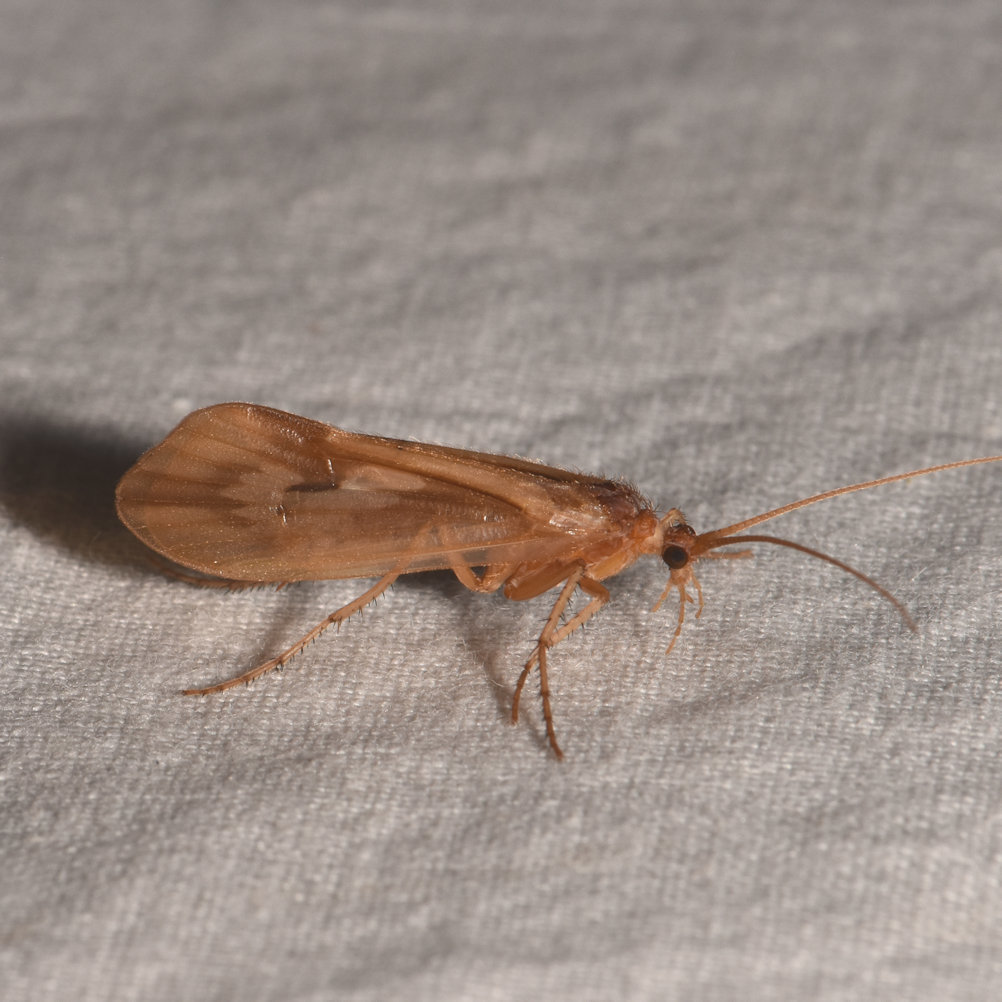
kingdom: Animalia
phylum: Arthropoda
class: Insecta
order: Trichoptera
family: Limnephilidae
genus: Platycentropus
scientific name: Platycentropus radiatus
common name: Chocolate-and-cream sedge
